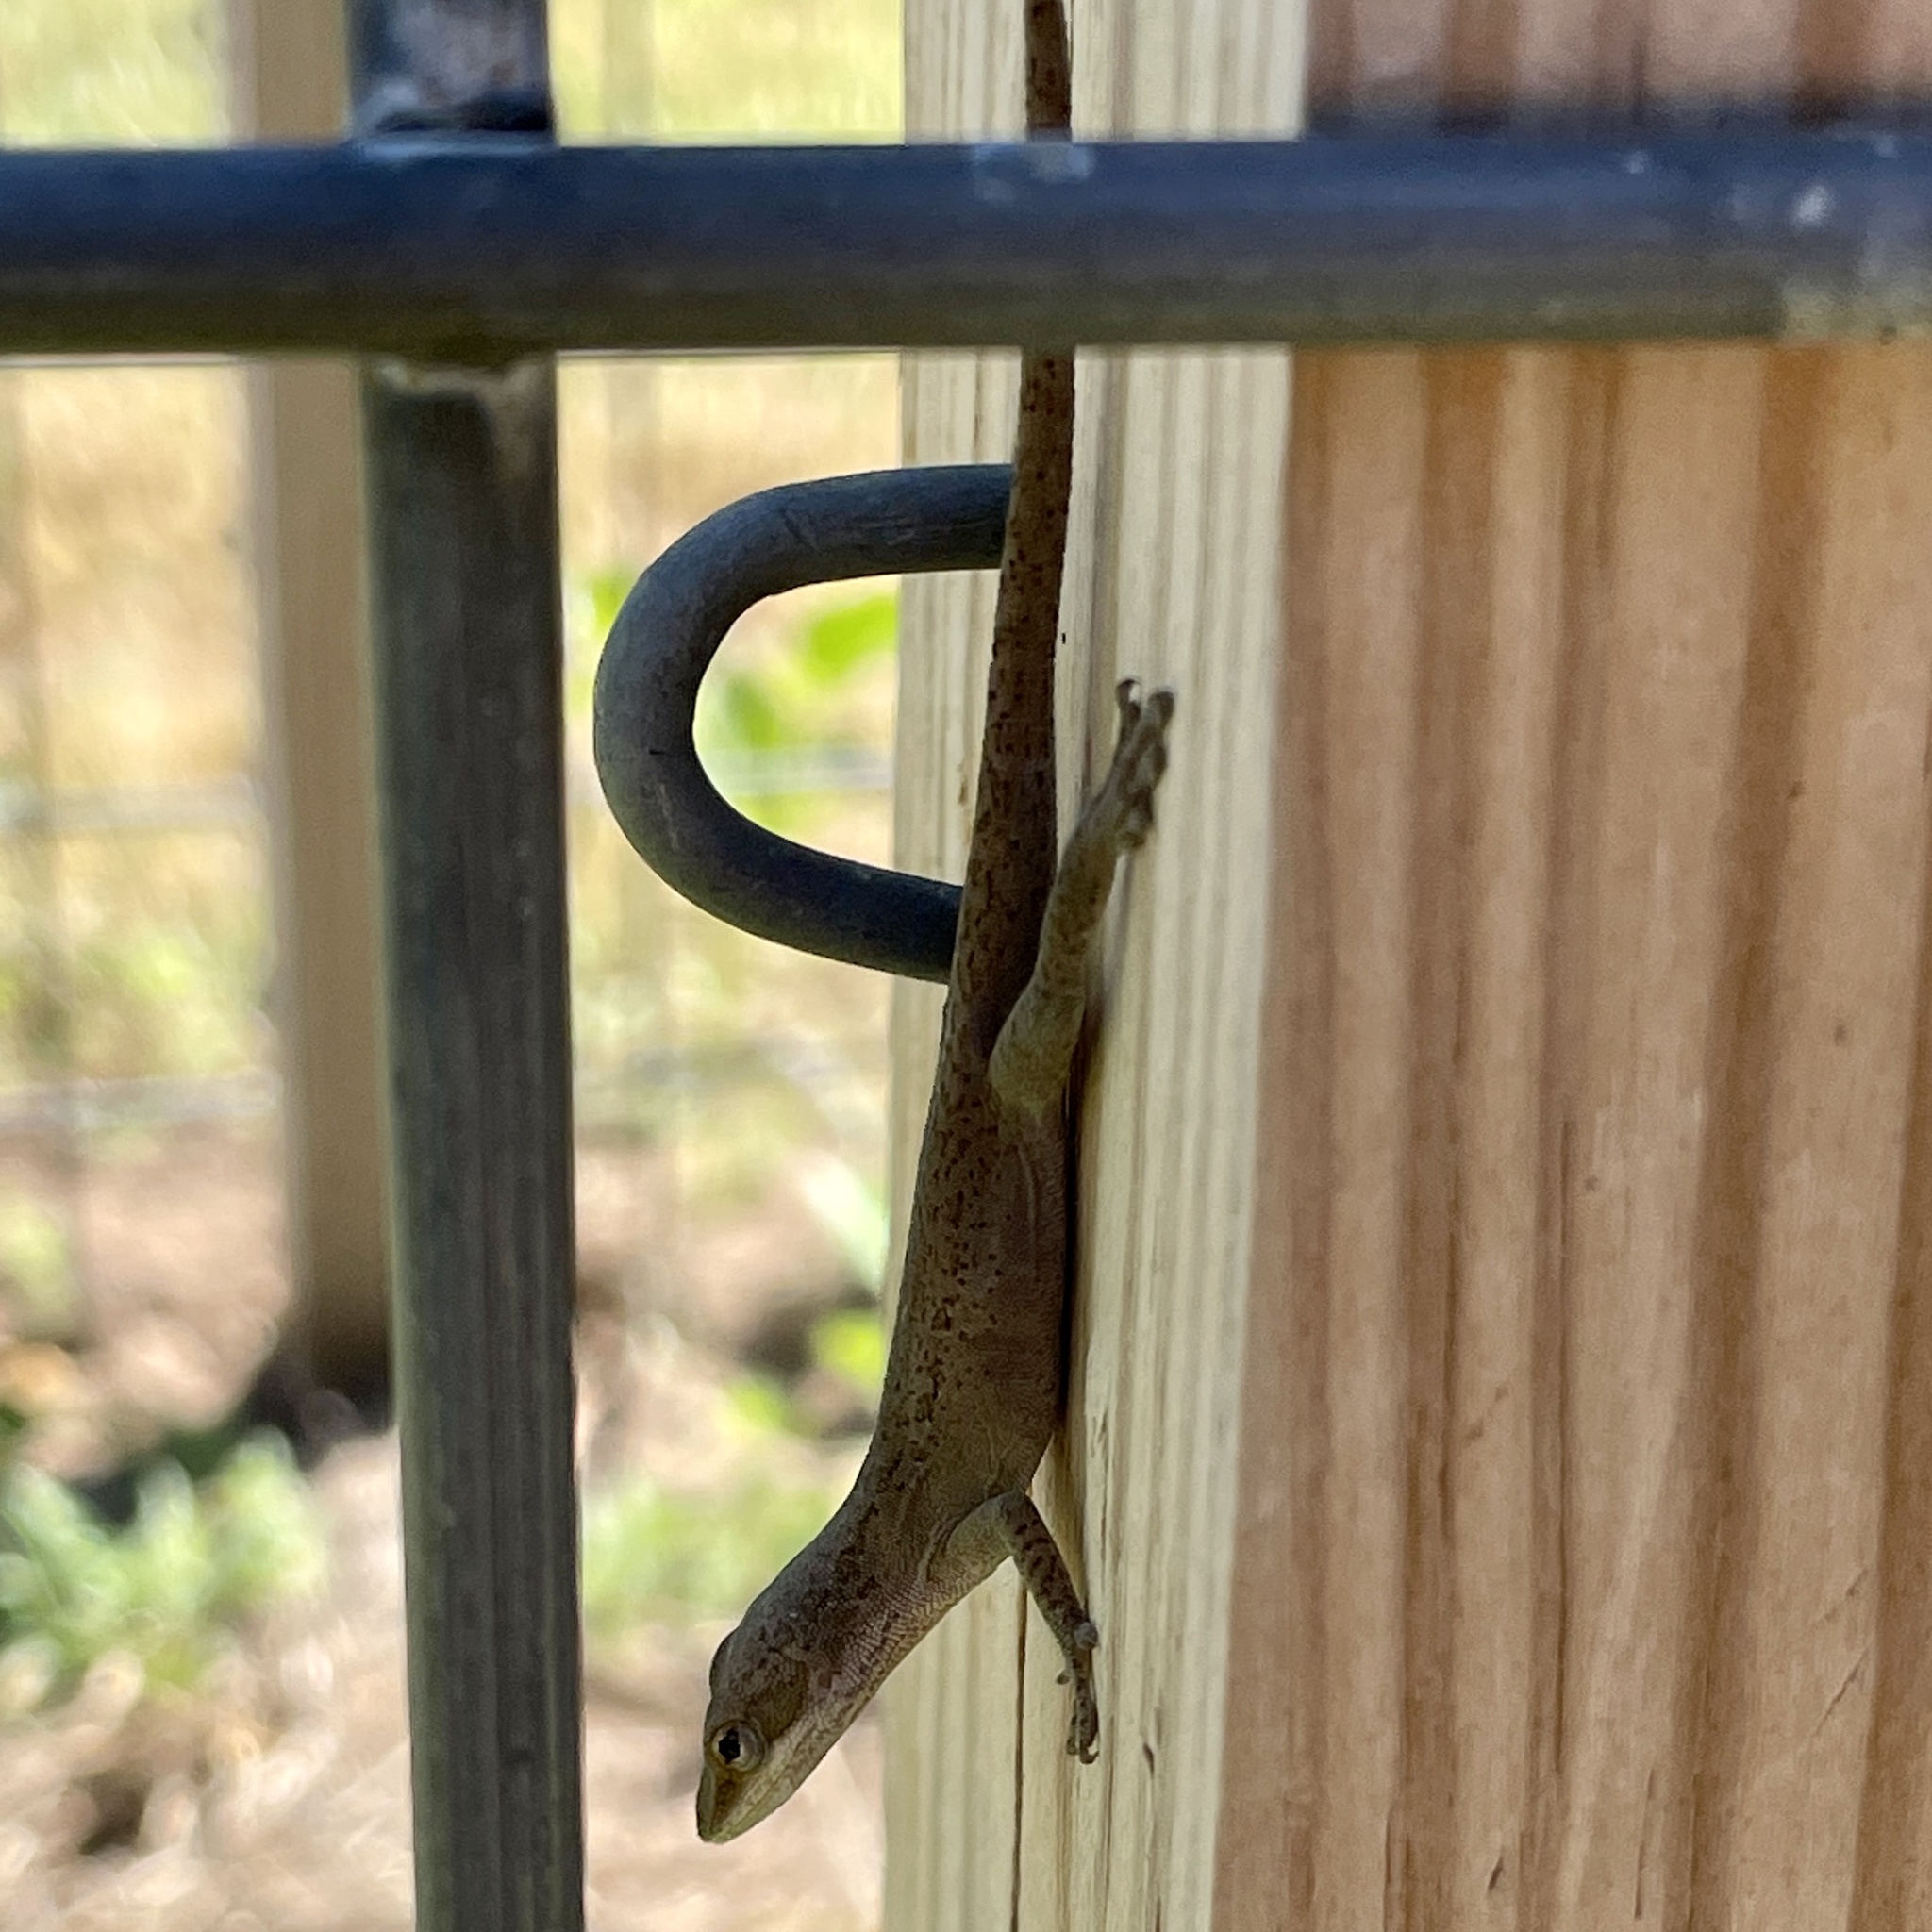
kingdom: Animalia
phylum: Chordata
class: Squamata
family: Dactyloidae
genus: Anolis
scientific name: Anolis carolinensis
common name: Green anole
